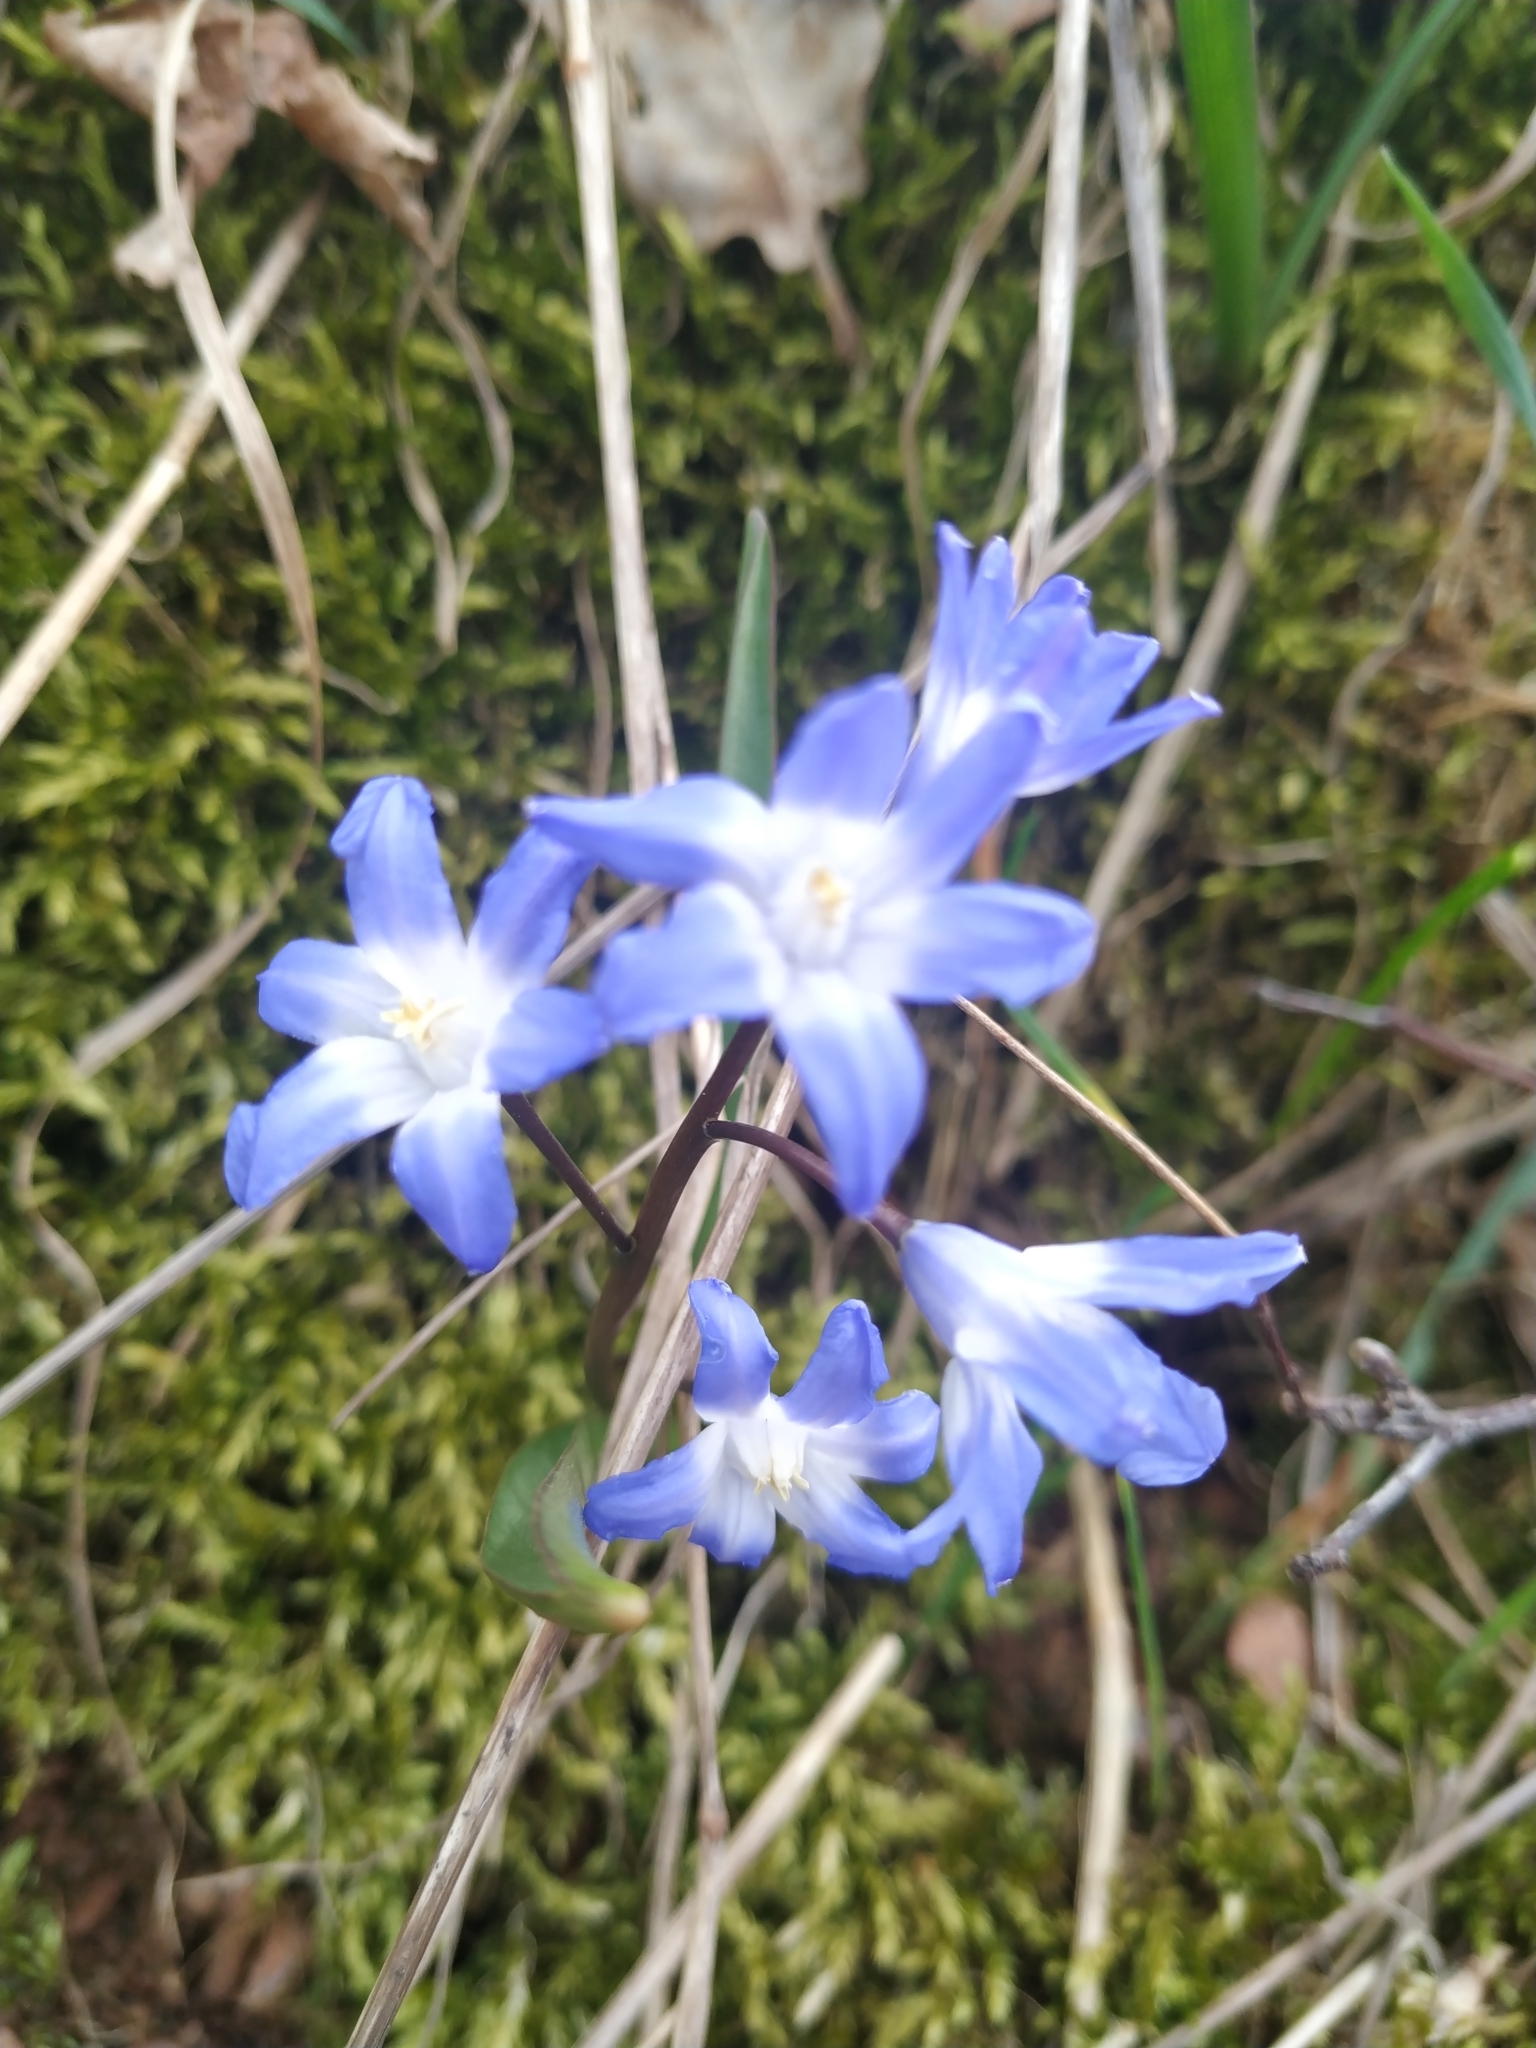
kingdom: Plantae
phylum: Tracheophyta
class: Liliopsida
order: Asparagales
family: Asparagaceae
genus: Scilla
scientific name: Scilla forbesii
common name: Glory-of-the-snow
